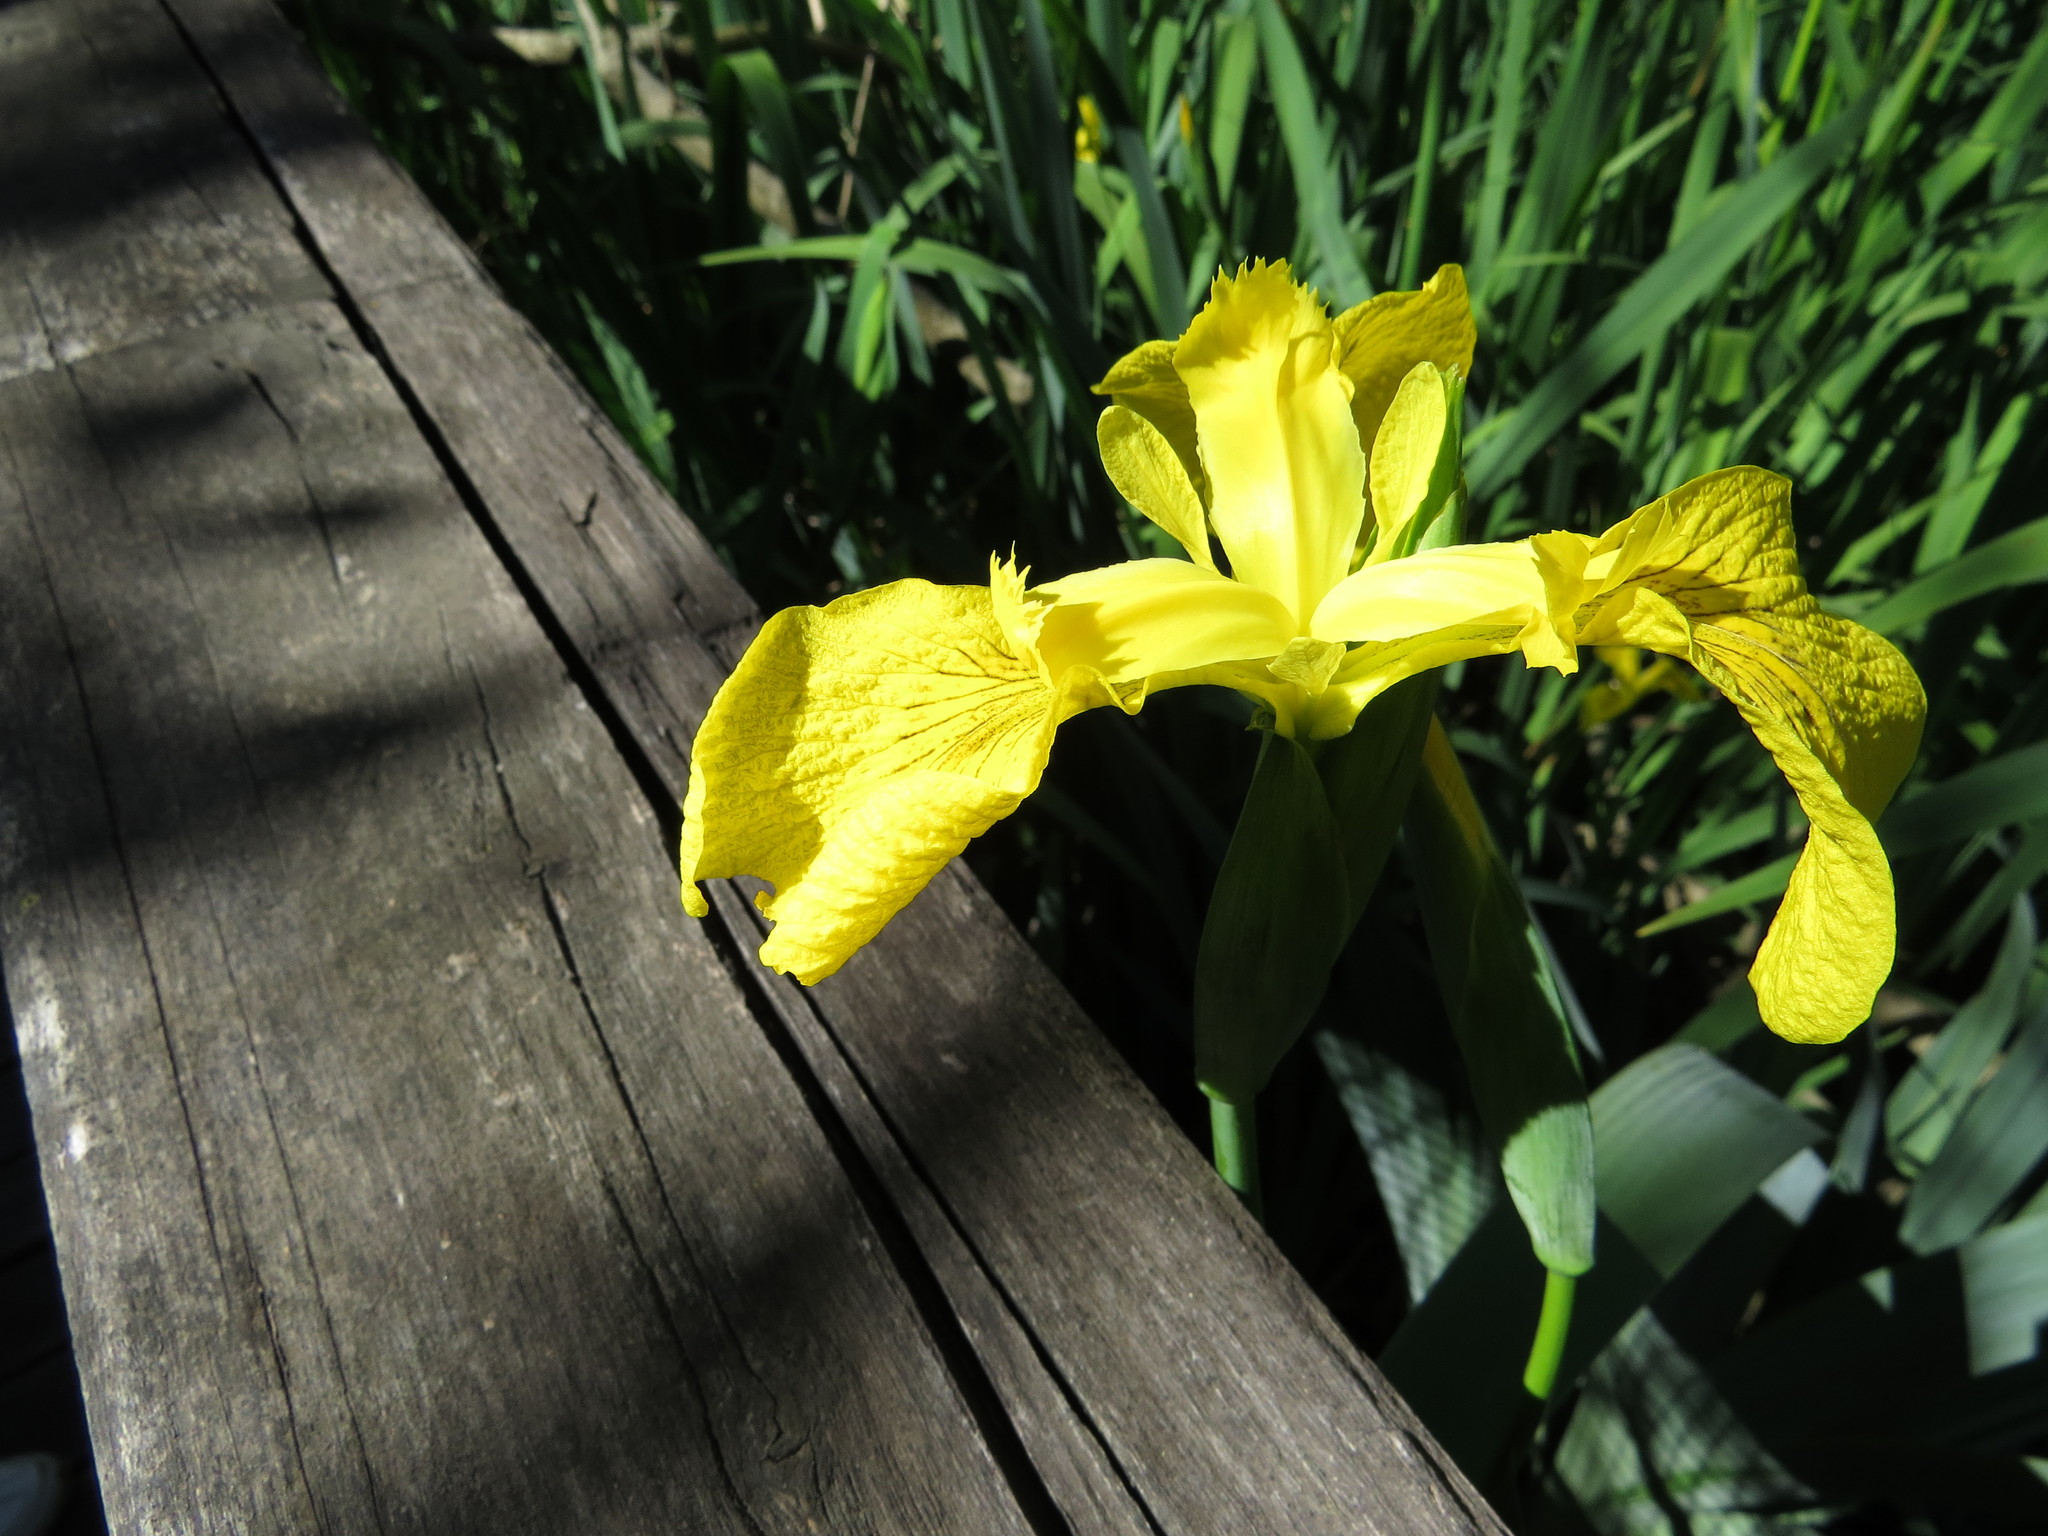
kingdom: Plantae
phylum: Tracheophyta
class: Liliopsida
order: Asparagales
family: Iridaceae
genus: Iris
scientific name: Iris pseudacorus
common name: Yellow flag
